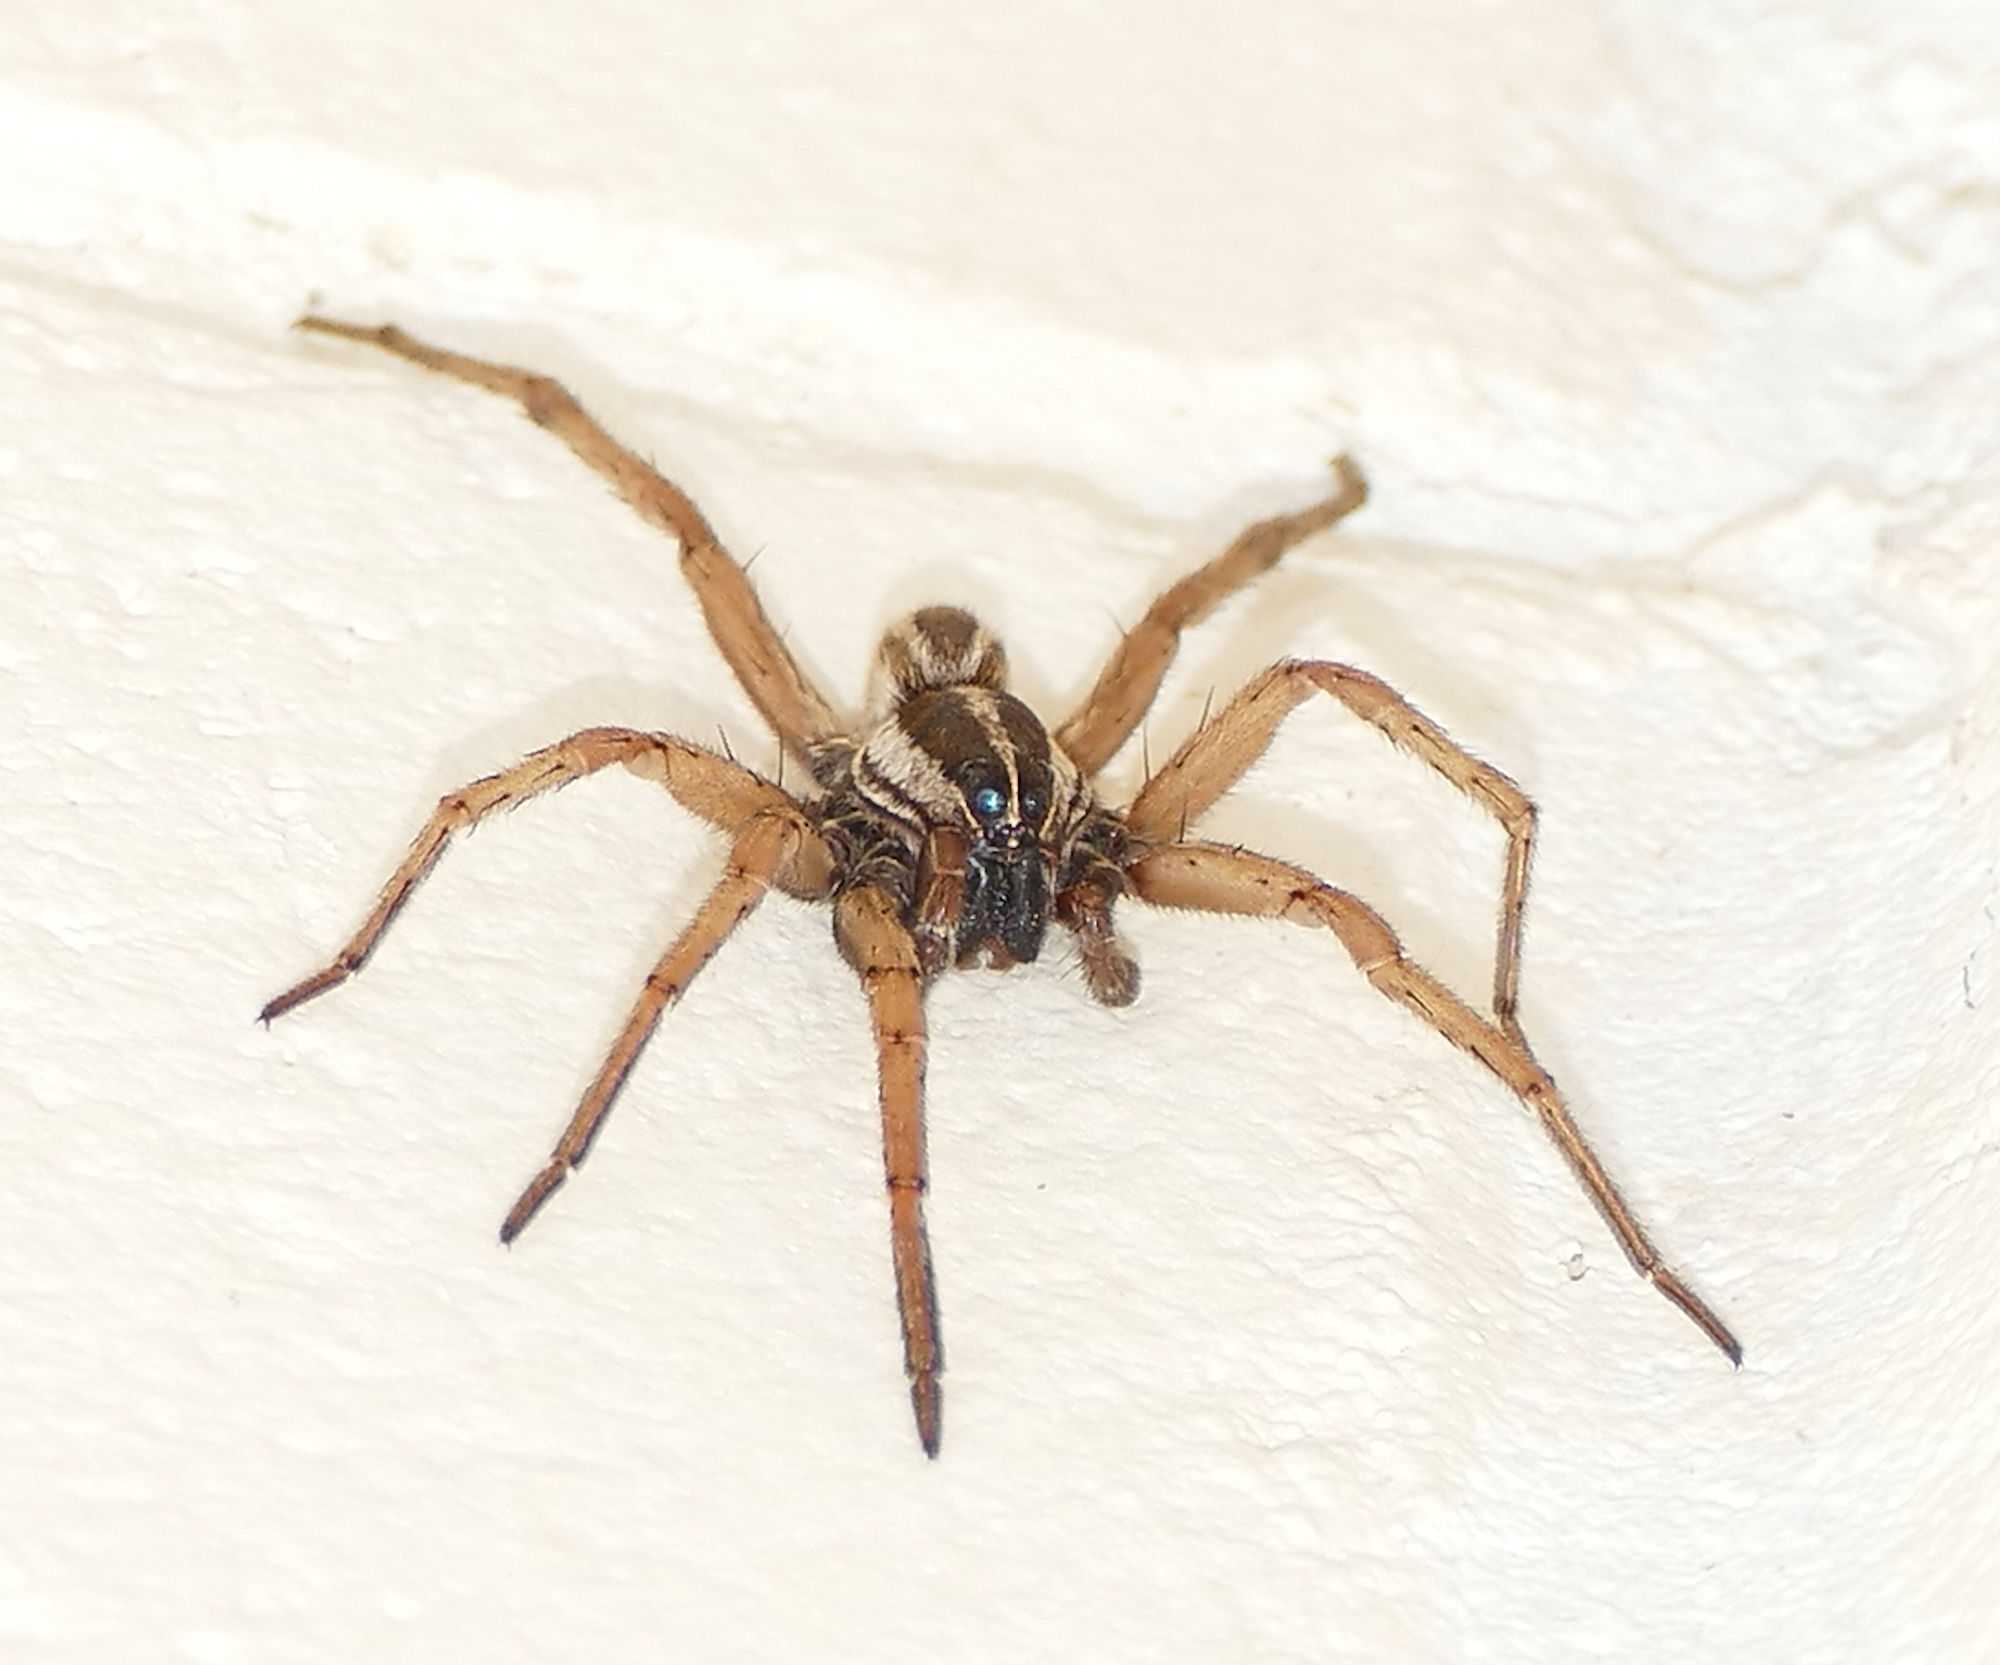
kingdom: Animalia
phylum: Arthropoda
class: Arachnida
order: Araneae
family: Lycosidae
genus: Rabidosa
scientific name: Rabidosa punctulata
